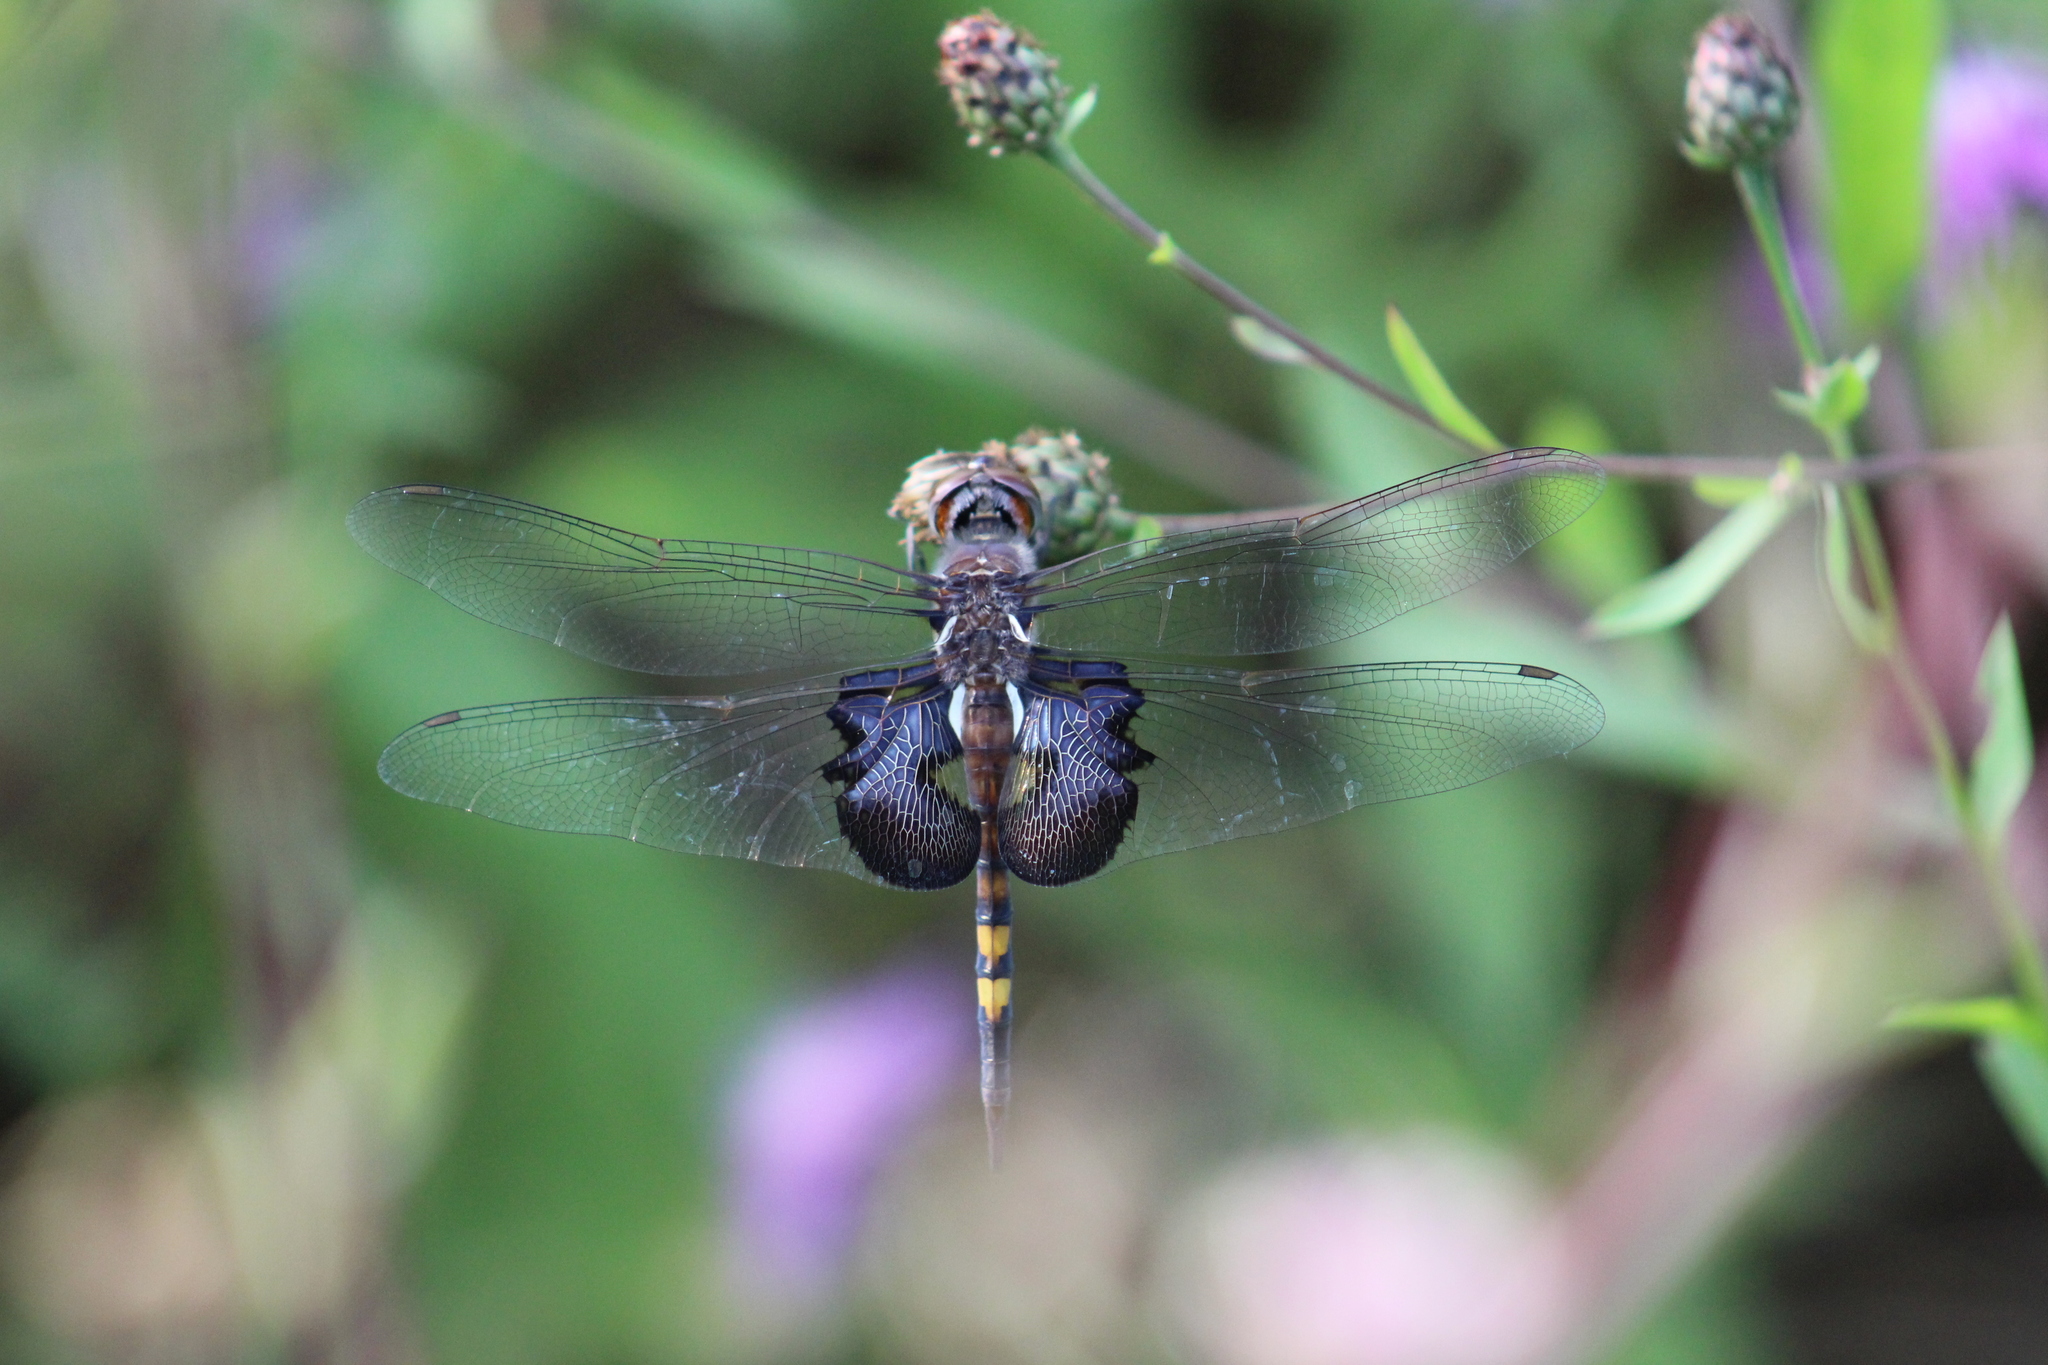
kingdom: Animalia
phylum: Arthropoda
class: Insecta
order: Odonata
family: Libellulidae
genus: Tramea
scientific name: Tramea lacerata
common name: Black saddlebags
